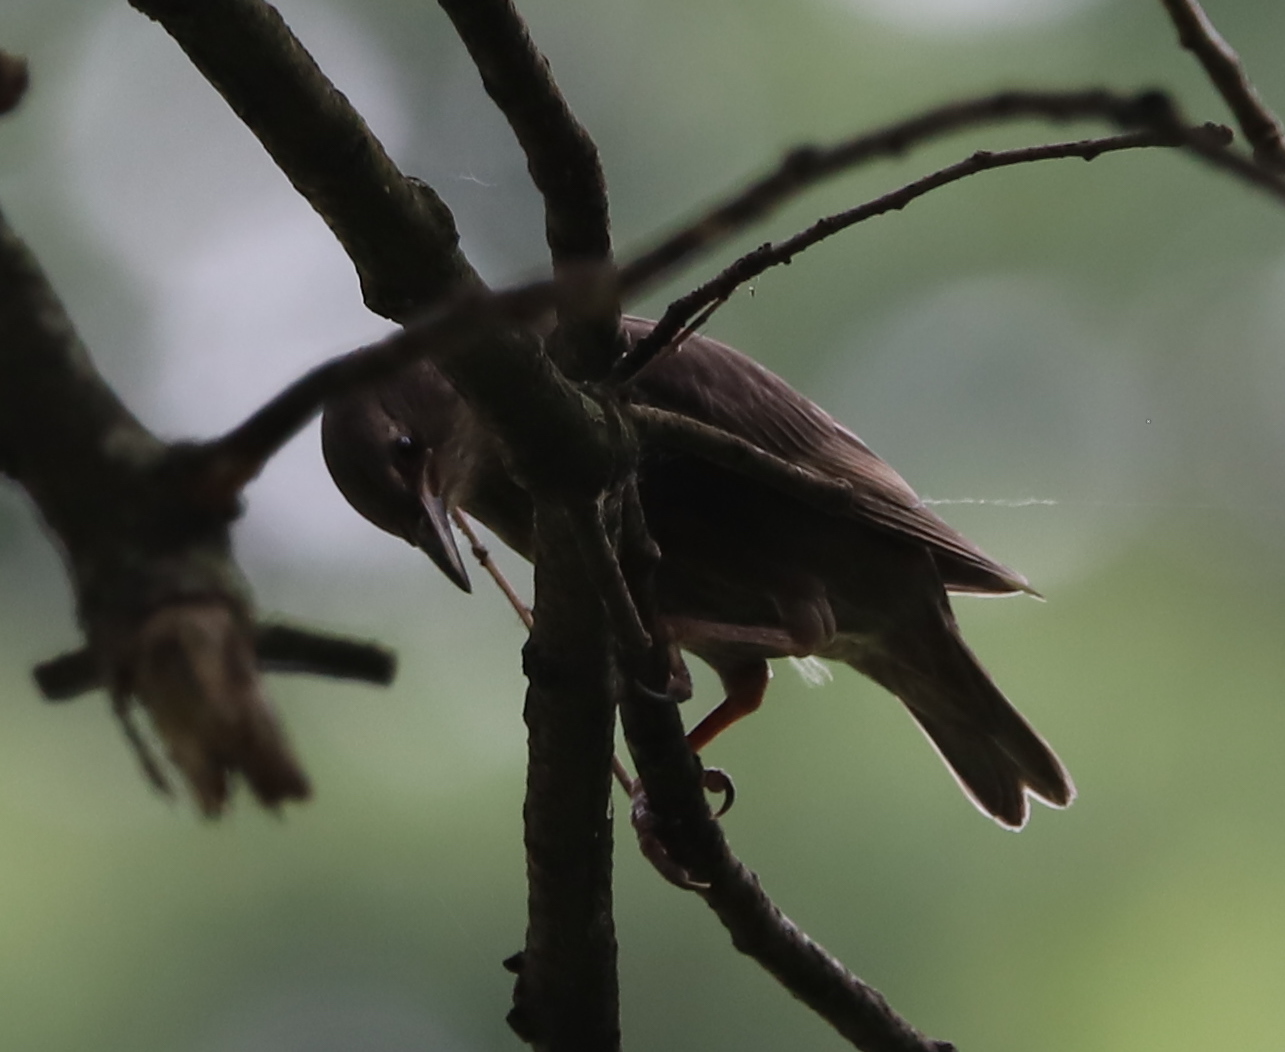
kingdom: Animalia
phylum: Chordata
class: Aves
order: Passeriformes
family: Sturnidae
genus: Sturnus
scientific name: Sturnus vulgaris
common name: Common starling
